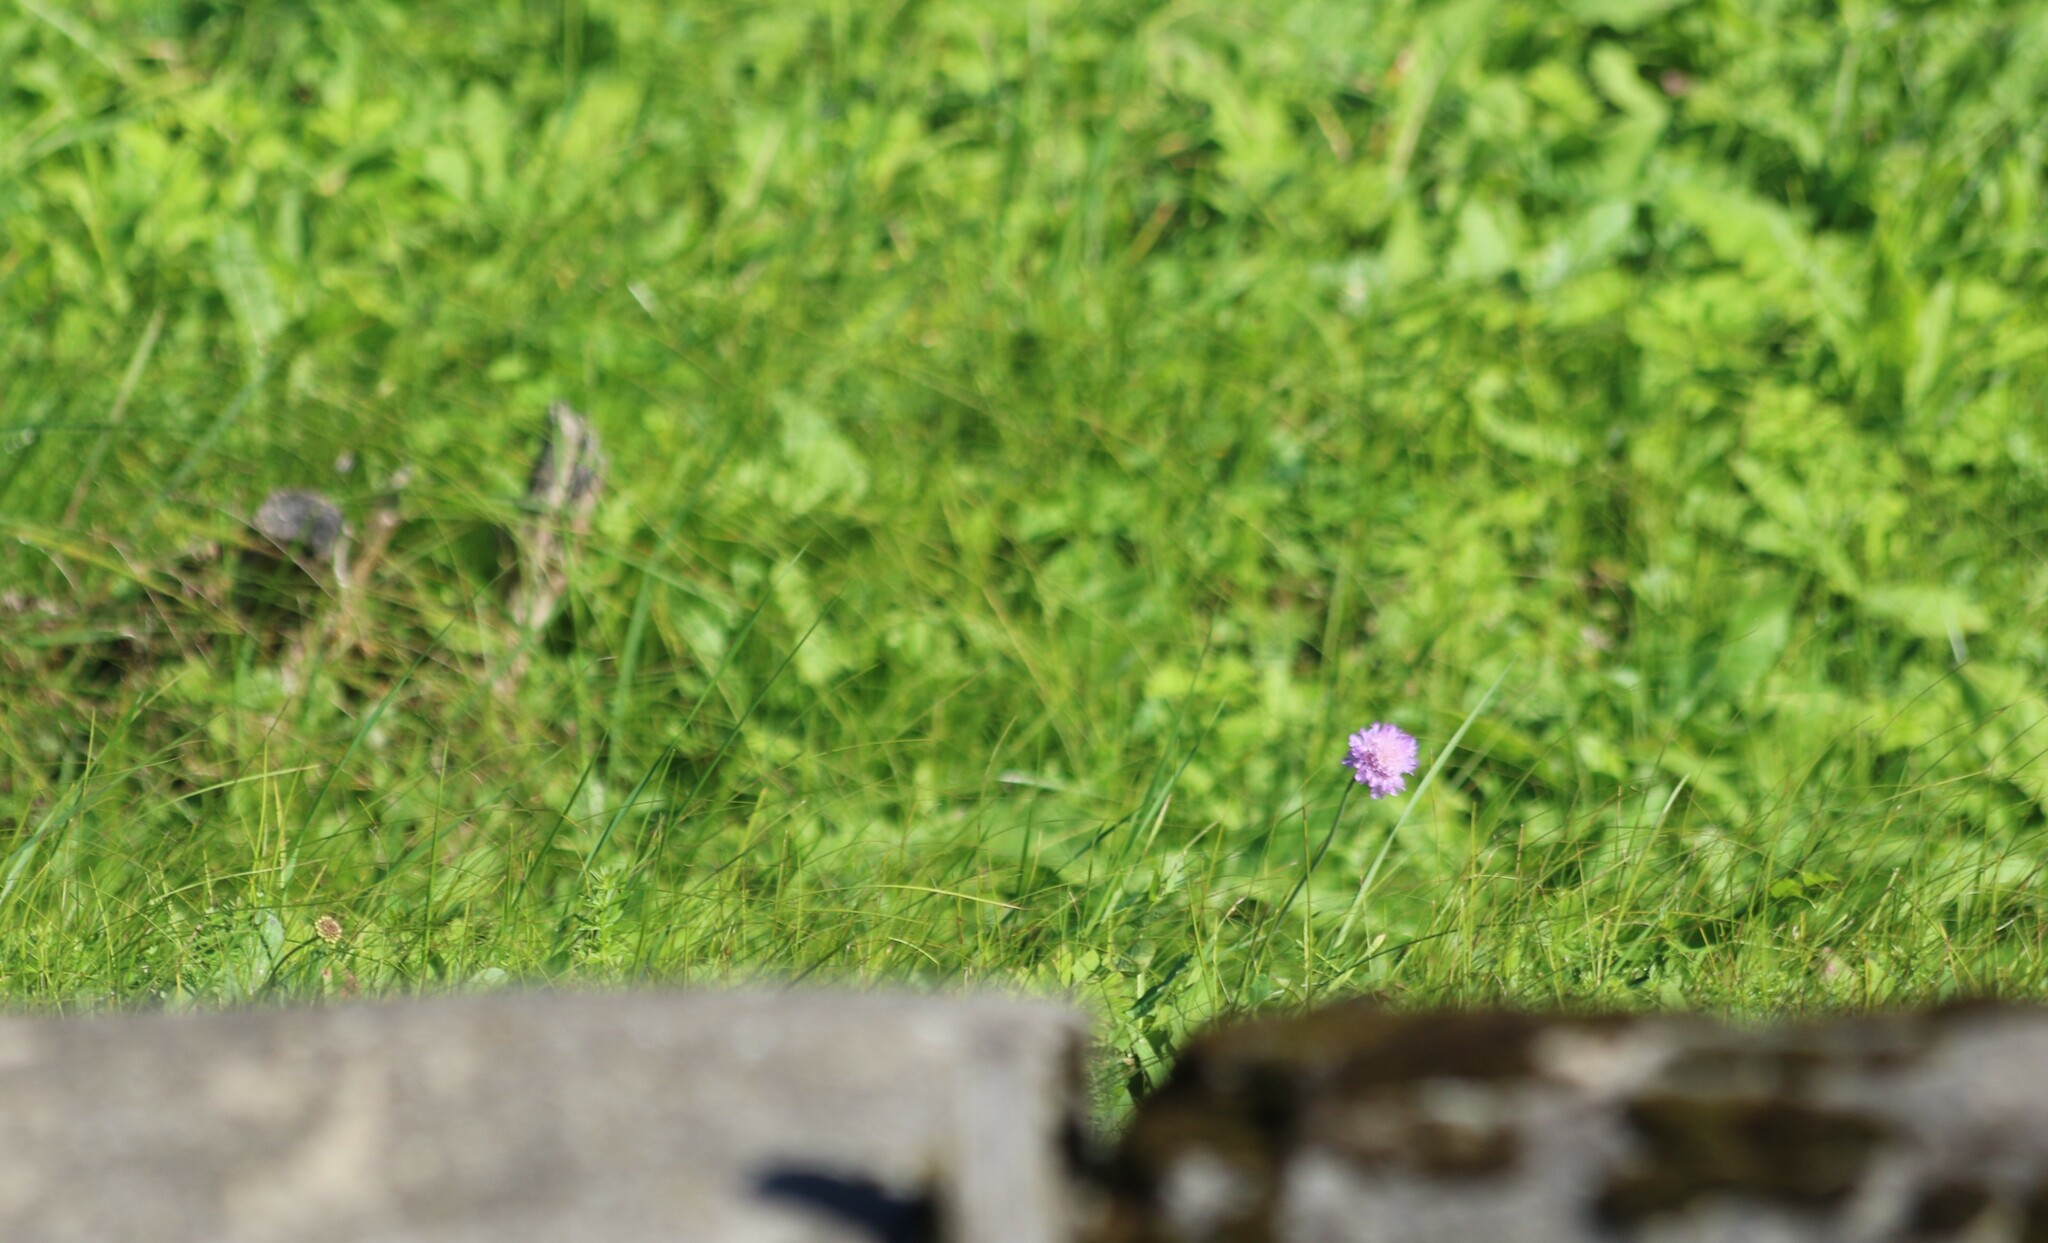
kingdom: Plantae
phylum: Tracheophyta
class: Magnoliopsida
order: Dipsacales
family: Caprifoliaceae
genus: Knautia
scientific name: Knautia arvensis
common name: Field scabiosa
